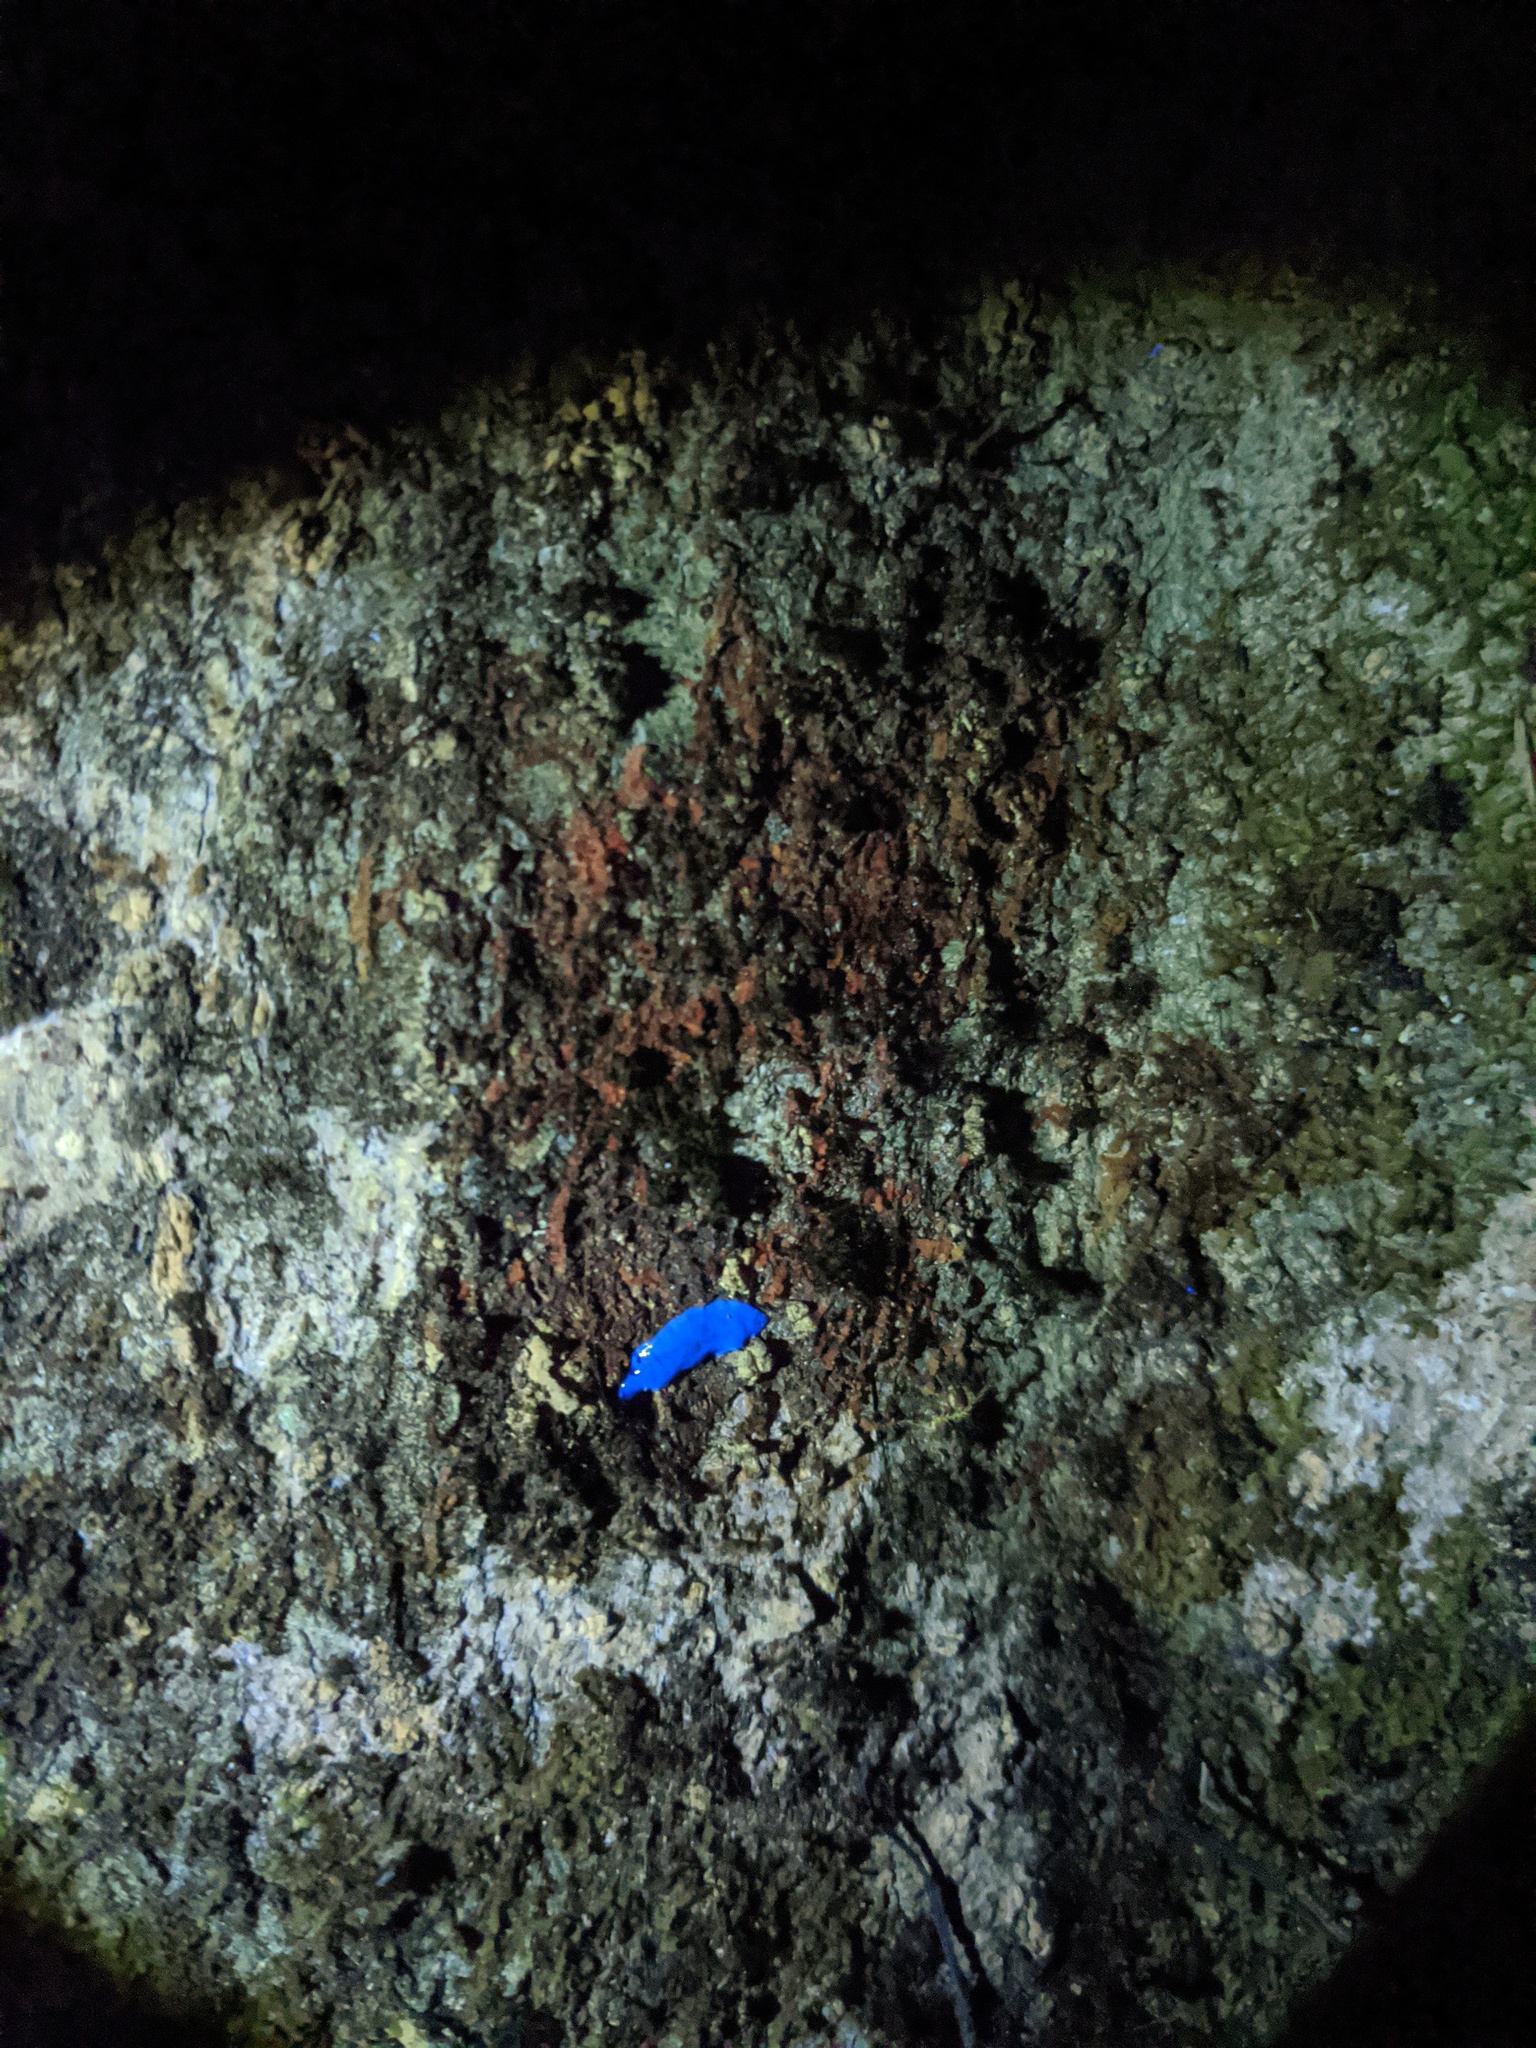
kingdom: Animalia
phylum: Platyhelminthes
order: Tricladida
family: Geoplanidae
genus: Newzealandia
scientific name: Newzealandia graffii
